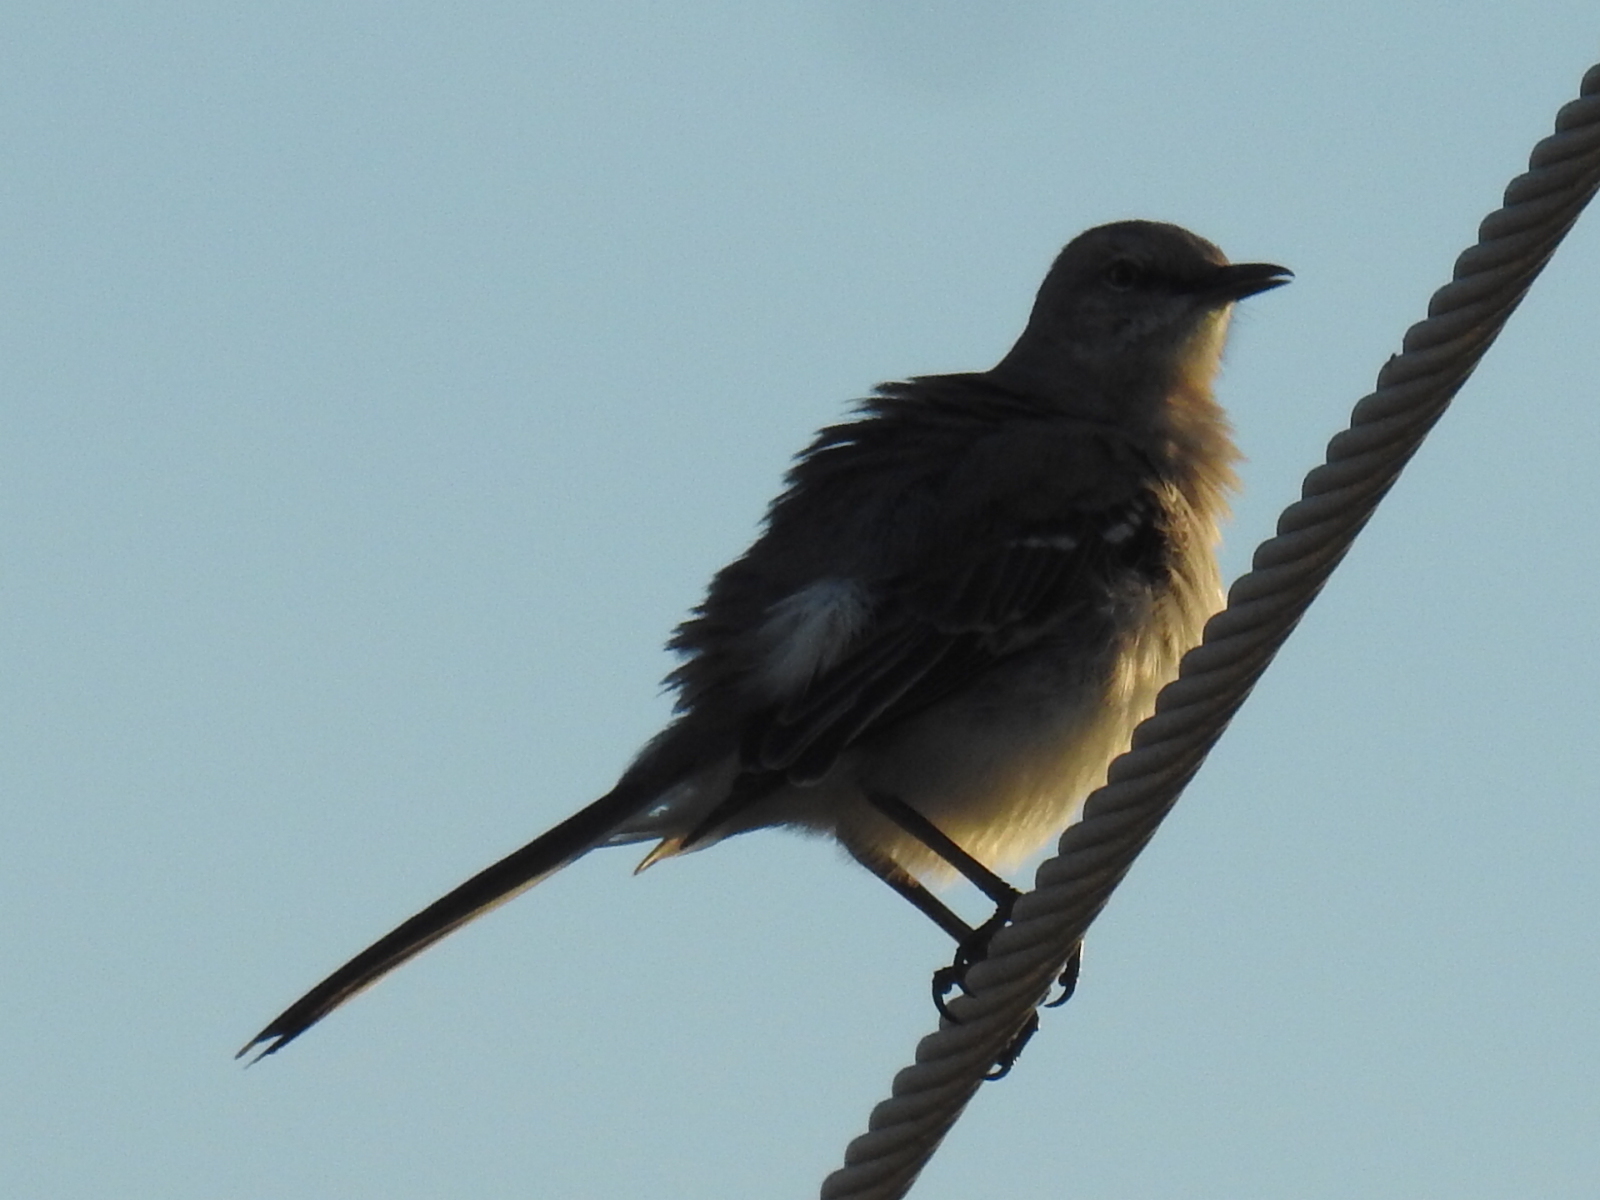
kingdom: Animalia
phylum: Chordata
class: Aves
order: Passeriformes
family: Mimidae
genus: Mimus
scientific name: Mimus polyglottos
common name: Northern mockingbird
